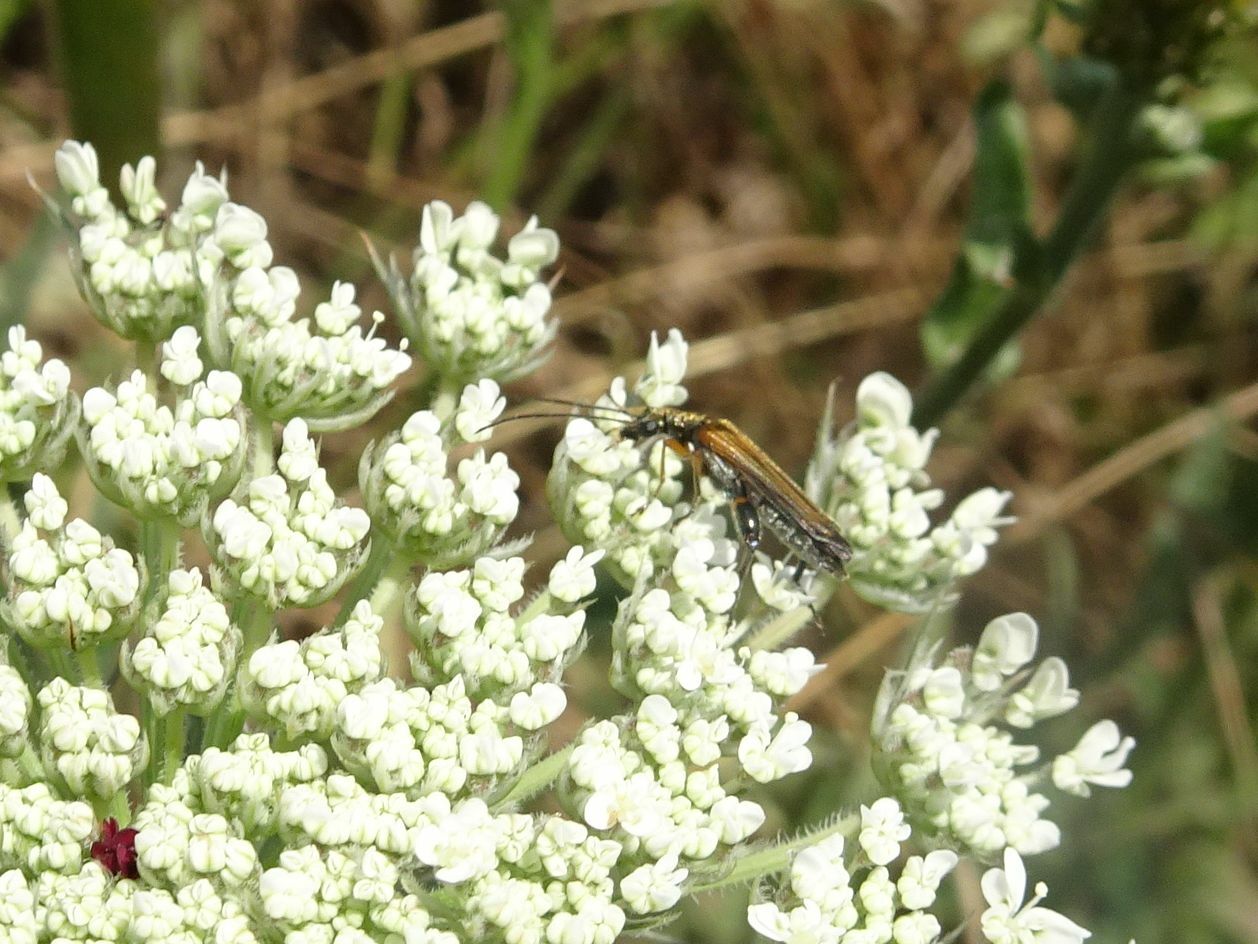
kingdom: Animalia
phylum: Arthropoda
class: Insecta
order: Coleoptera
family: Oedemeridae
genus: Oedemera
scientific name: Oedemera podagrariae
